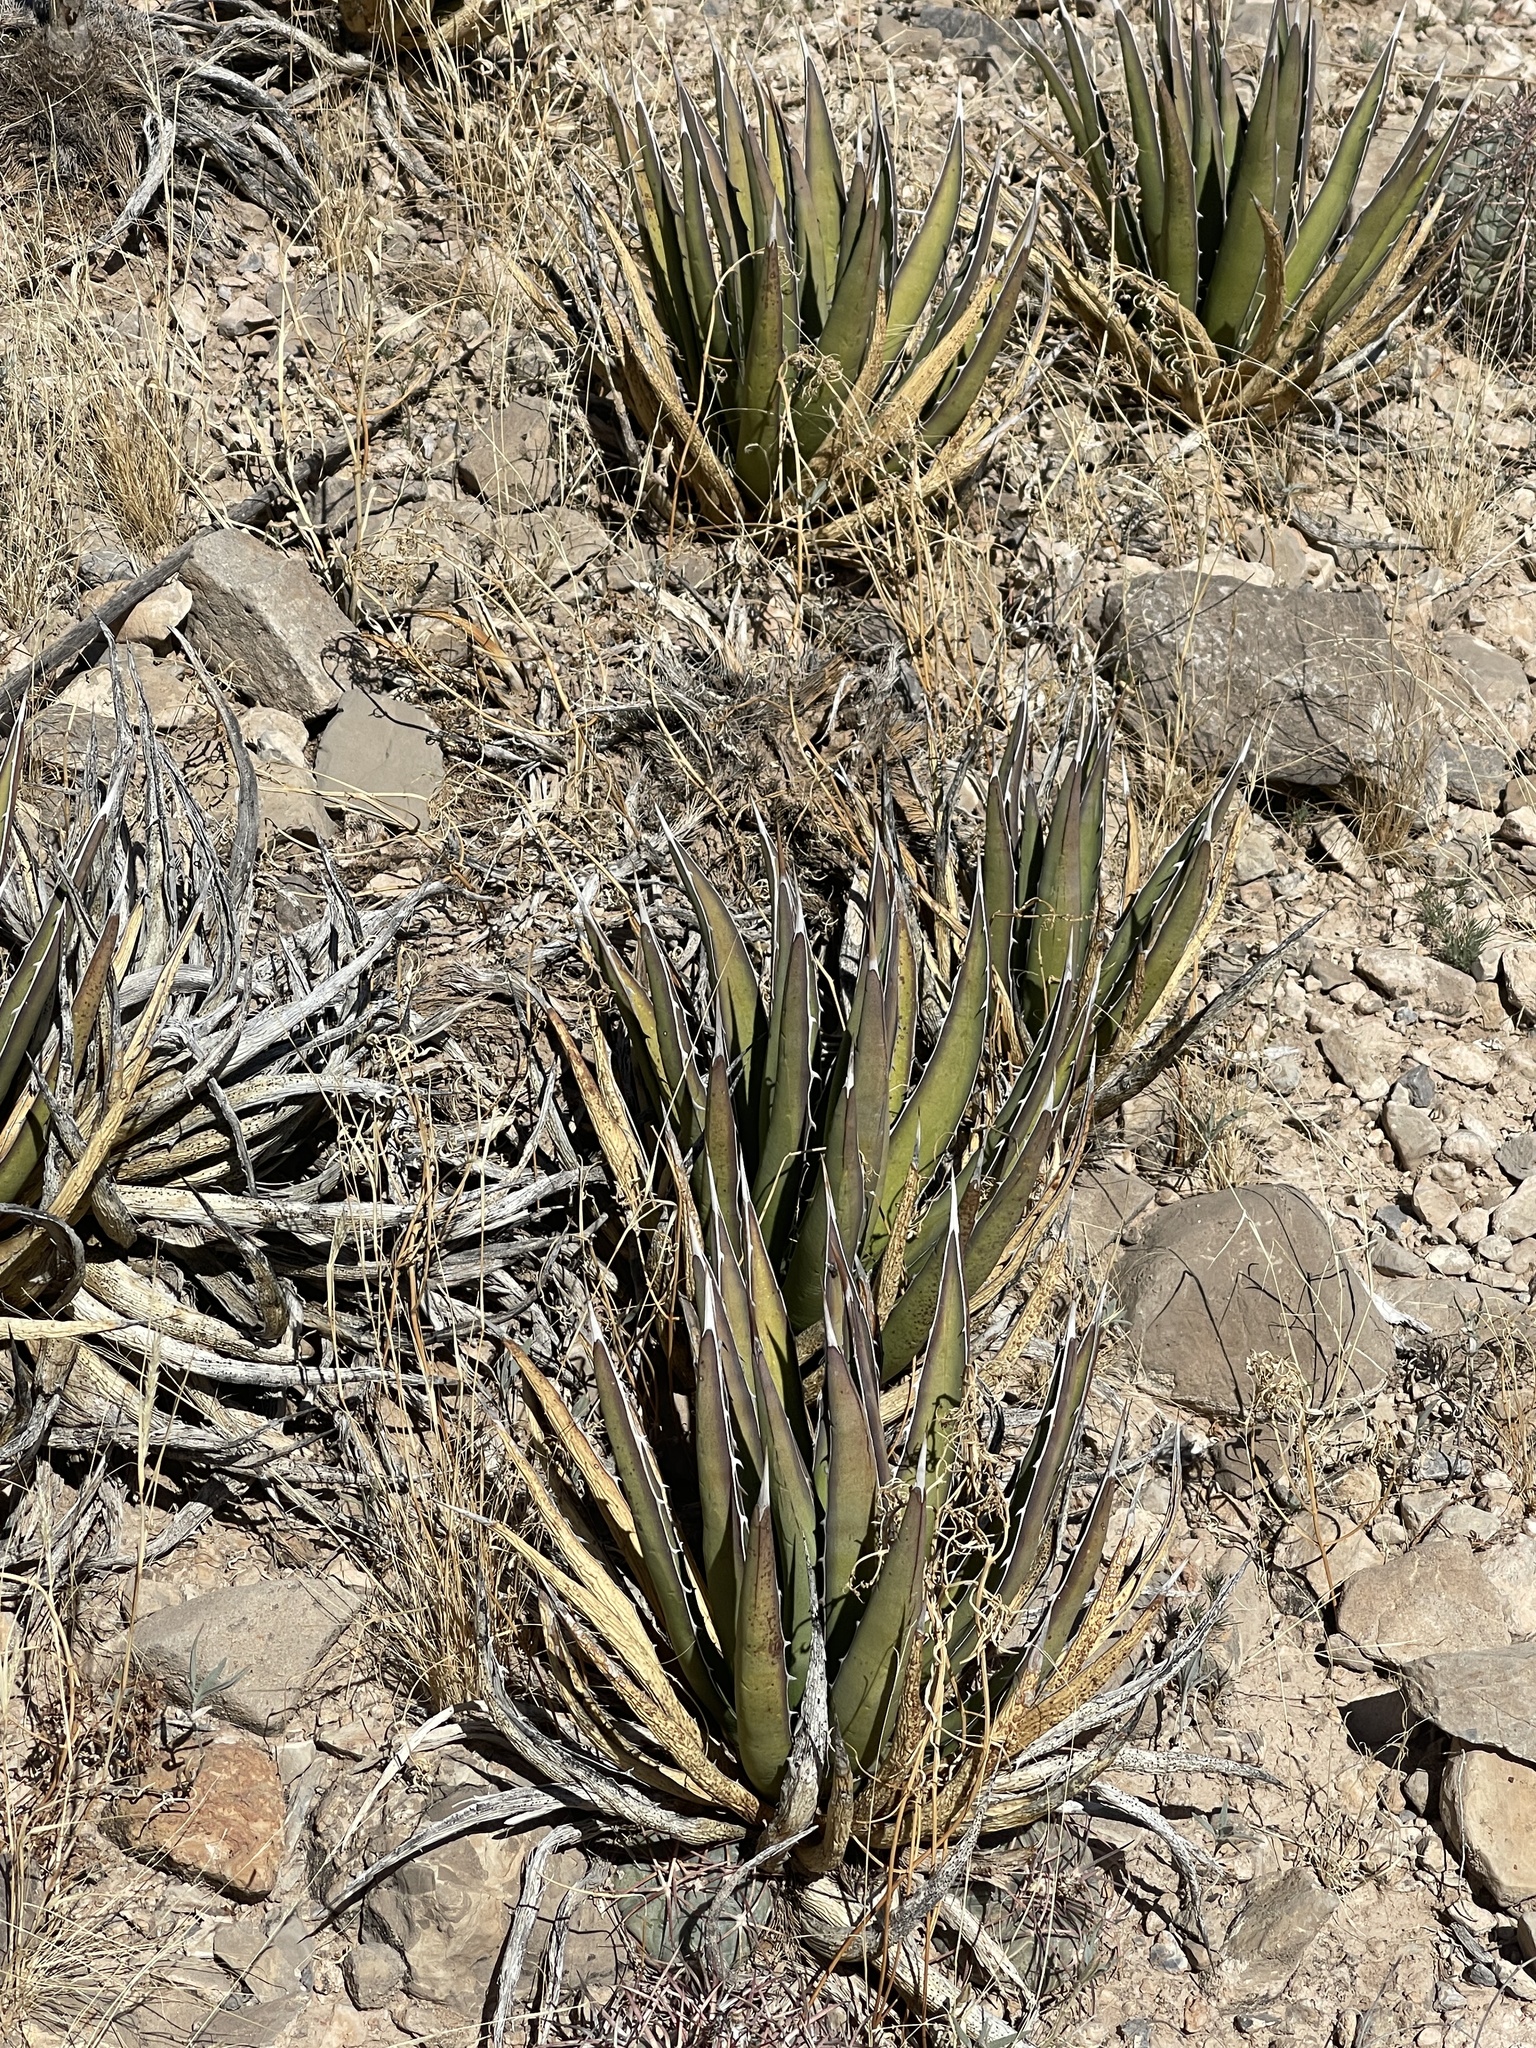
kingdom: Plantae
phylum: Tracheophyta
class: Liliopsida
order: Asparagales
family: Asparagaceae
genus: Agave
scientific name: Agave lechuguilla
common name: Lecheguilla agave
